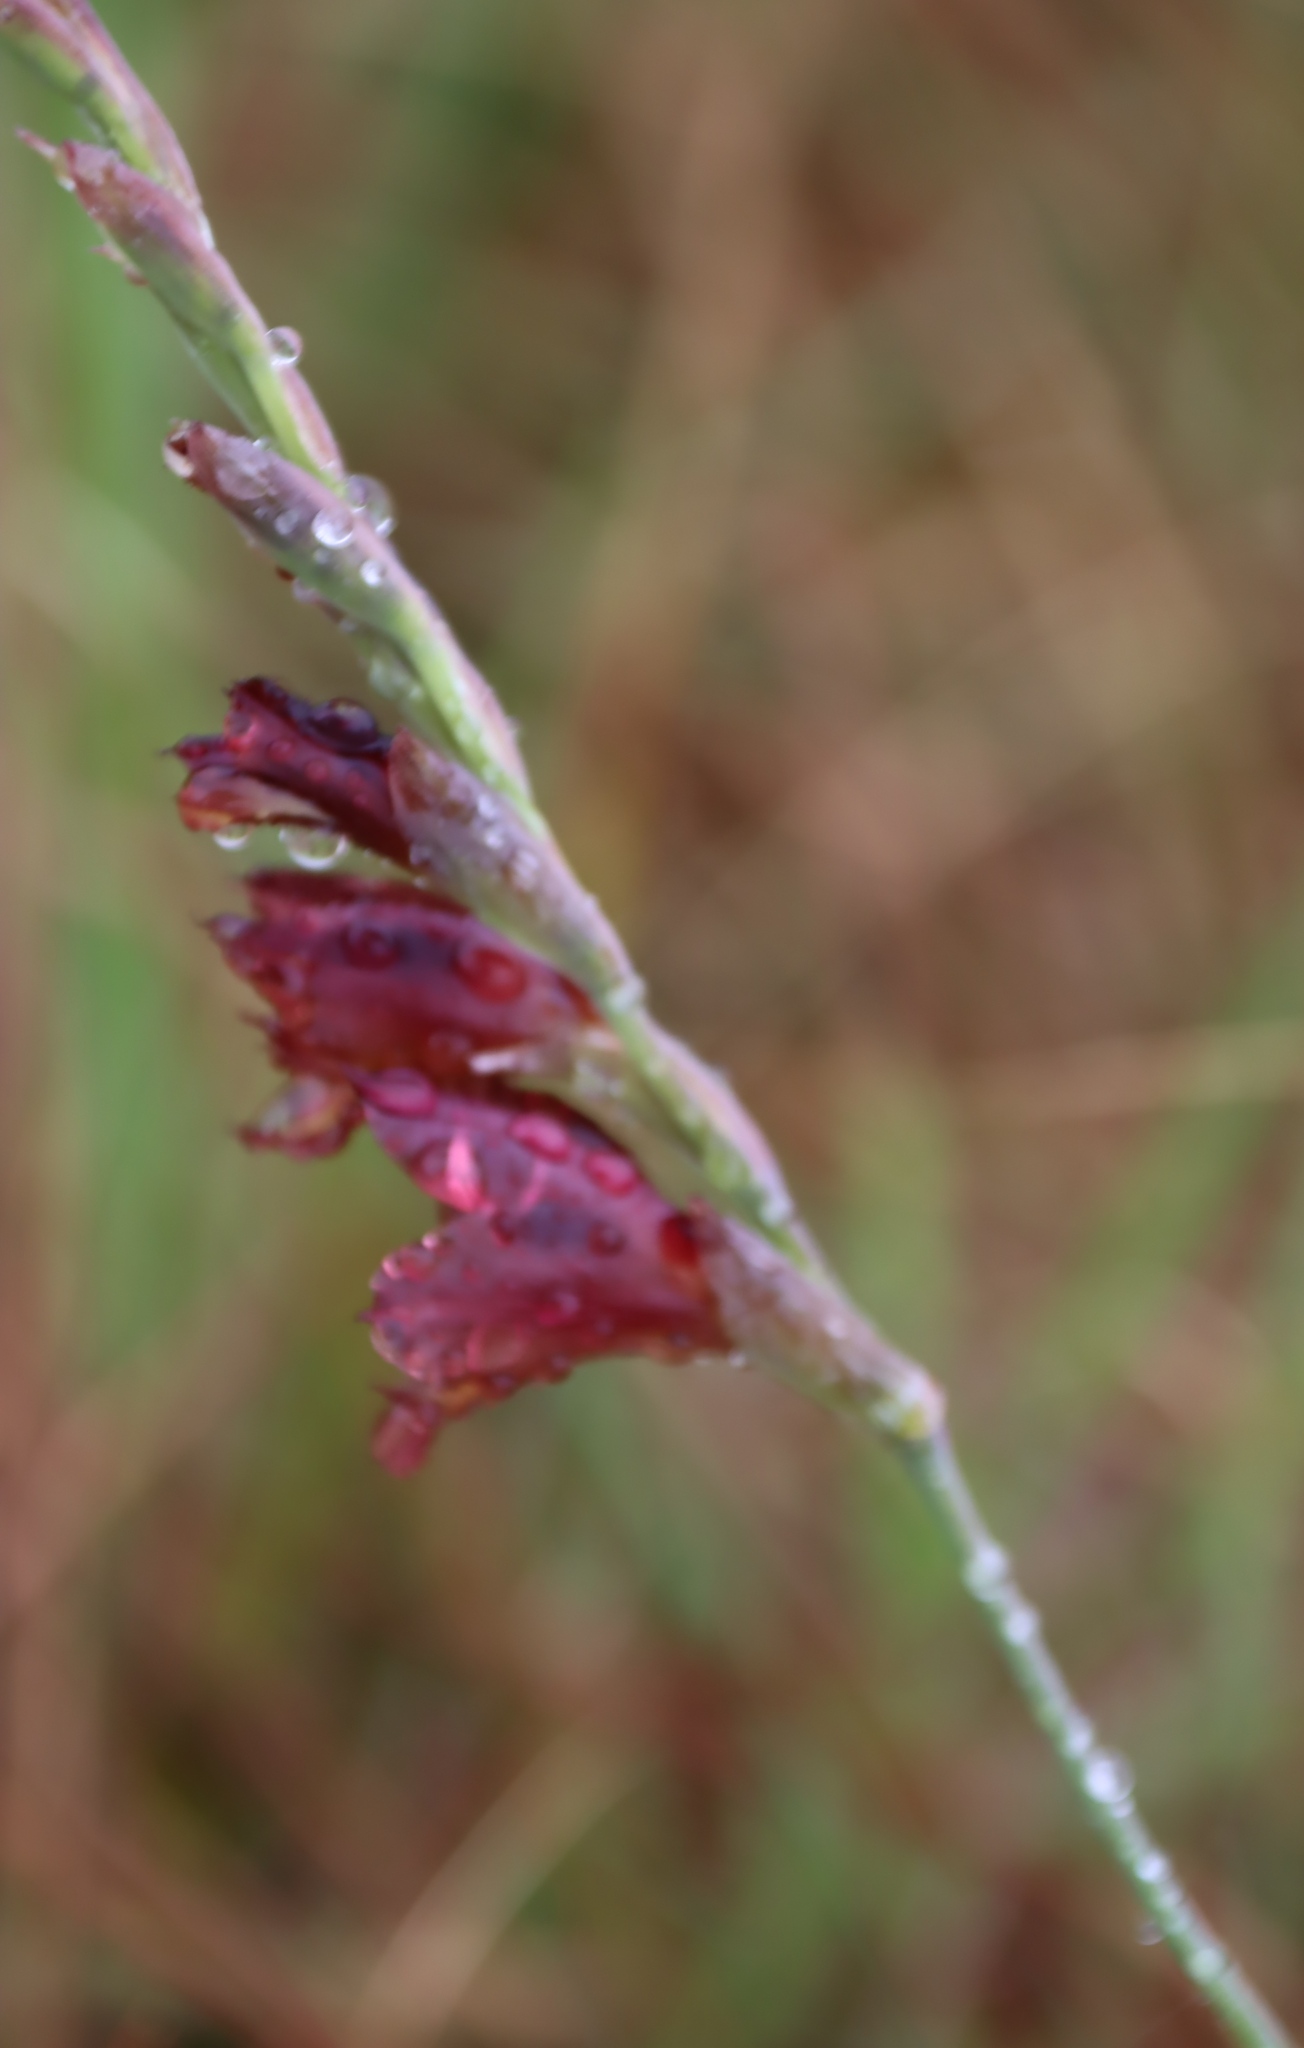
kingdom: Plantae
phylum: Tracheophyta
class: Liliopsida
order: Asparagales
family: Iridaceae
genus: Gladiolus
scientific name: Gladiolus woodii
